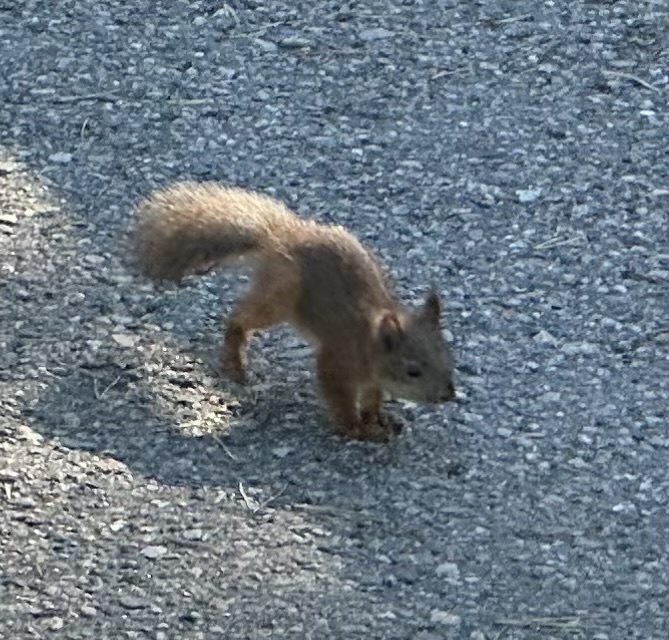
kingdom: Animalia
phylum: Chordata
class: Mammalia
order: Rodentia
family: Sciuridae
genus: Sciurus
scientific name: Sciurus vulgaris
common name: Eurasian red squirrel
